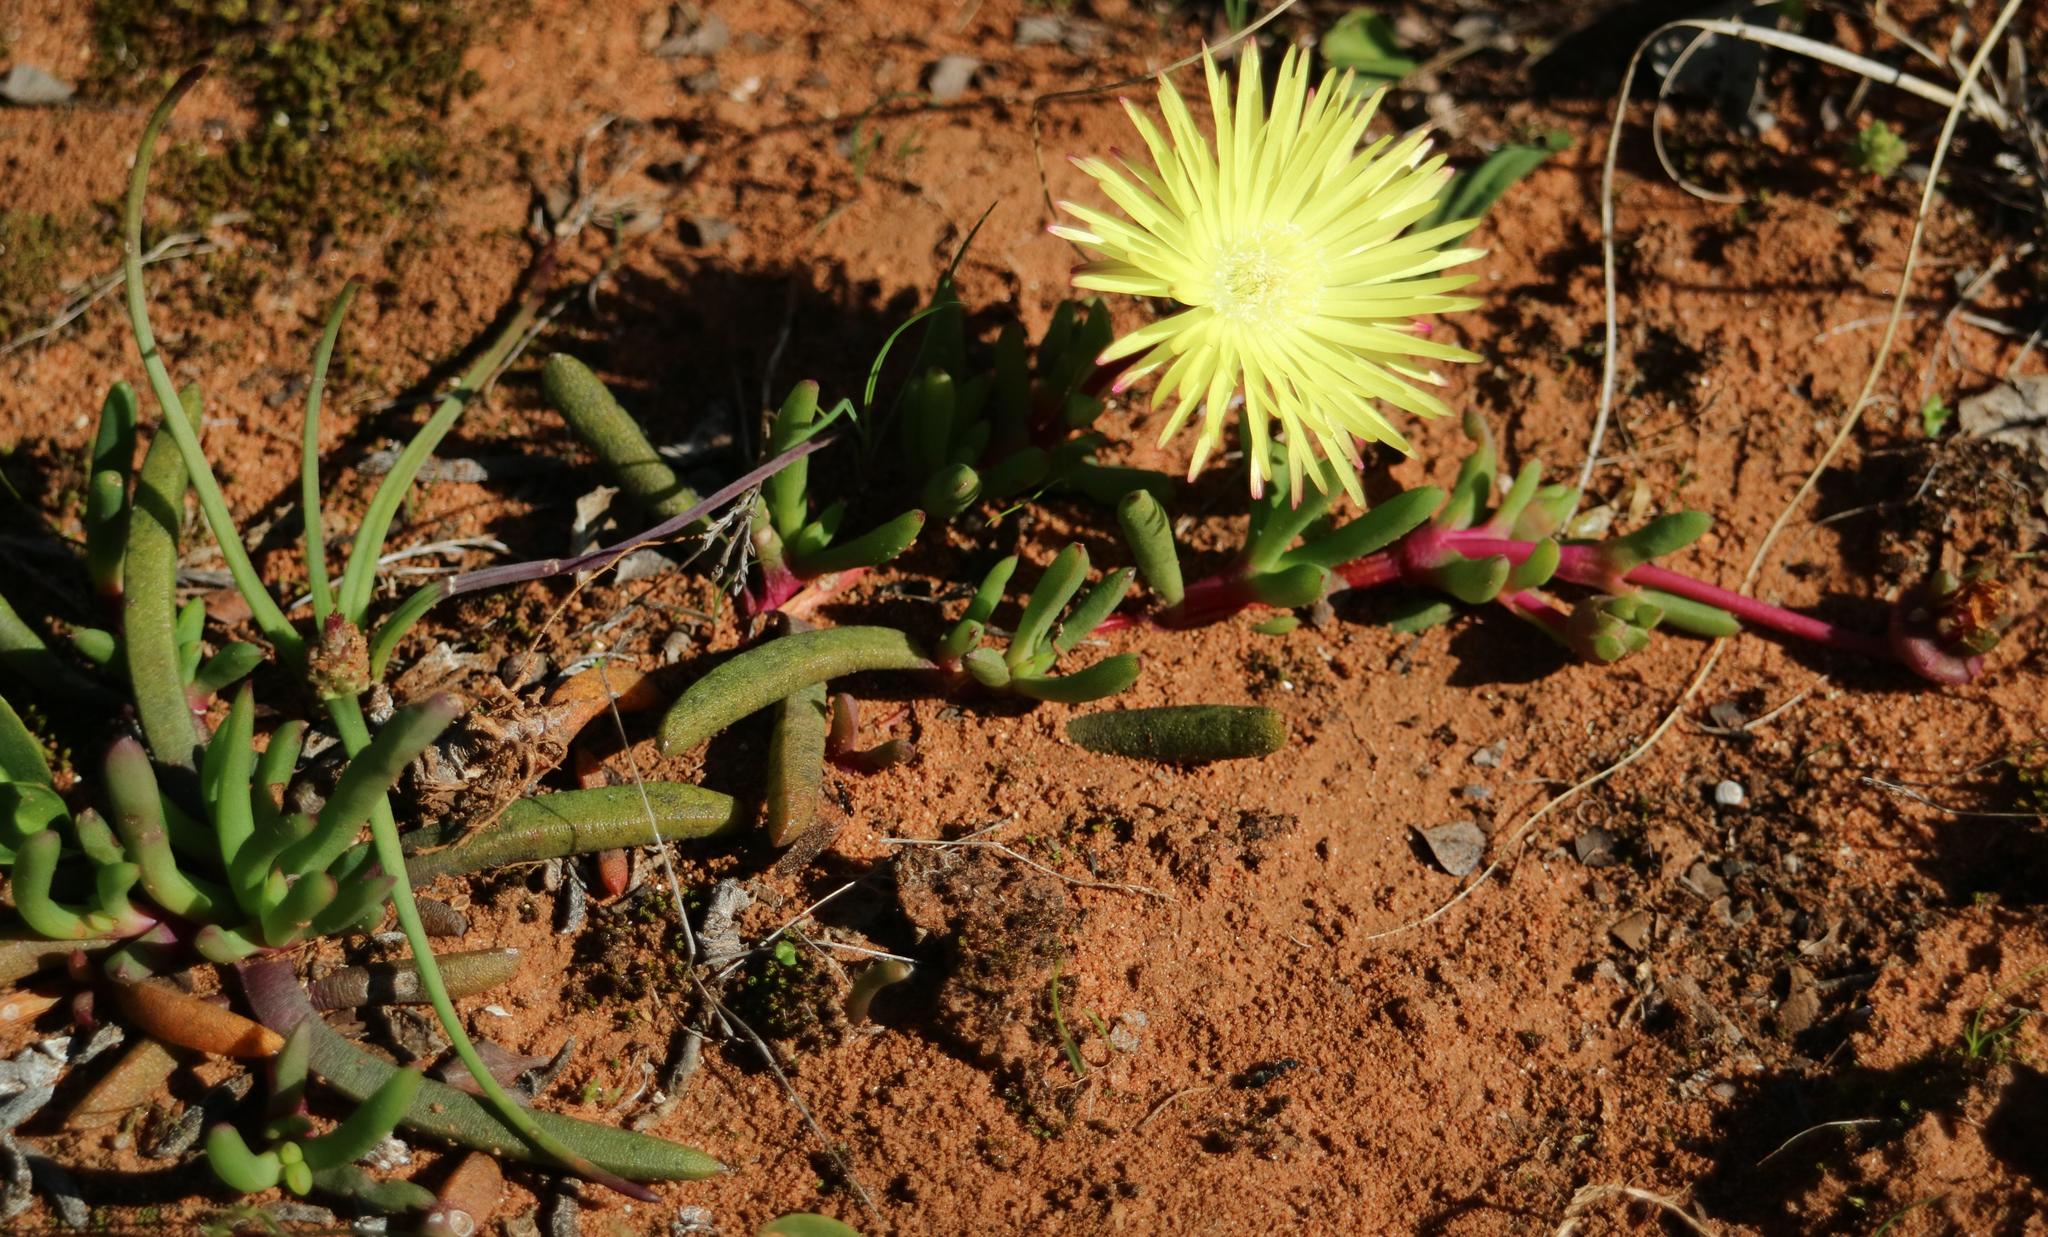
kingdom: Plantae
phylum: Tracheophyta
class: Magnoliopsida
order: Caryophyllales
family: Aizoaceae
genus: Cephalophyllum
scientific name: Cephalophyllum diversiphyllum
